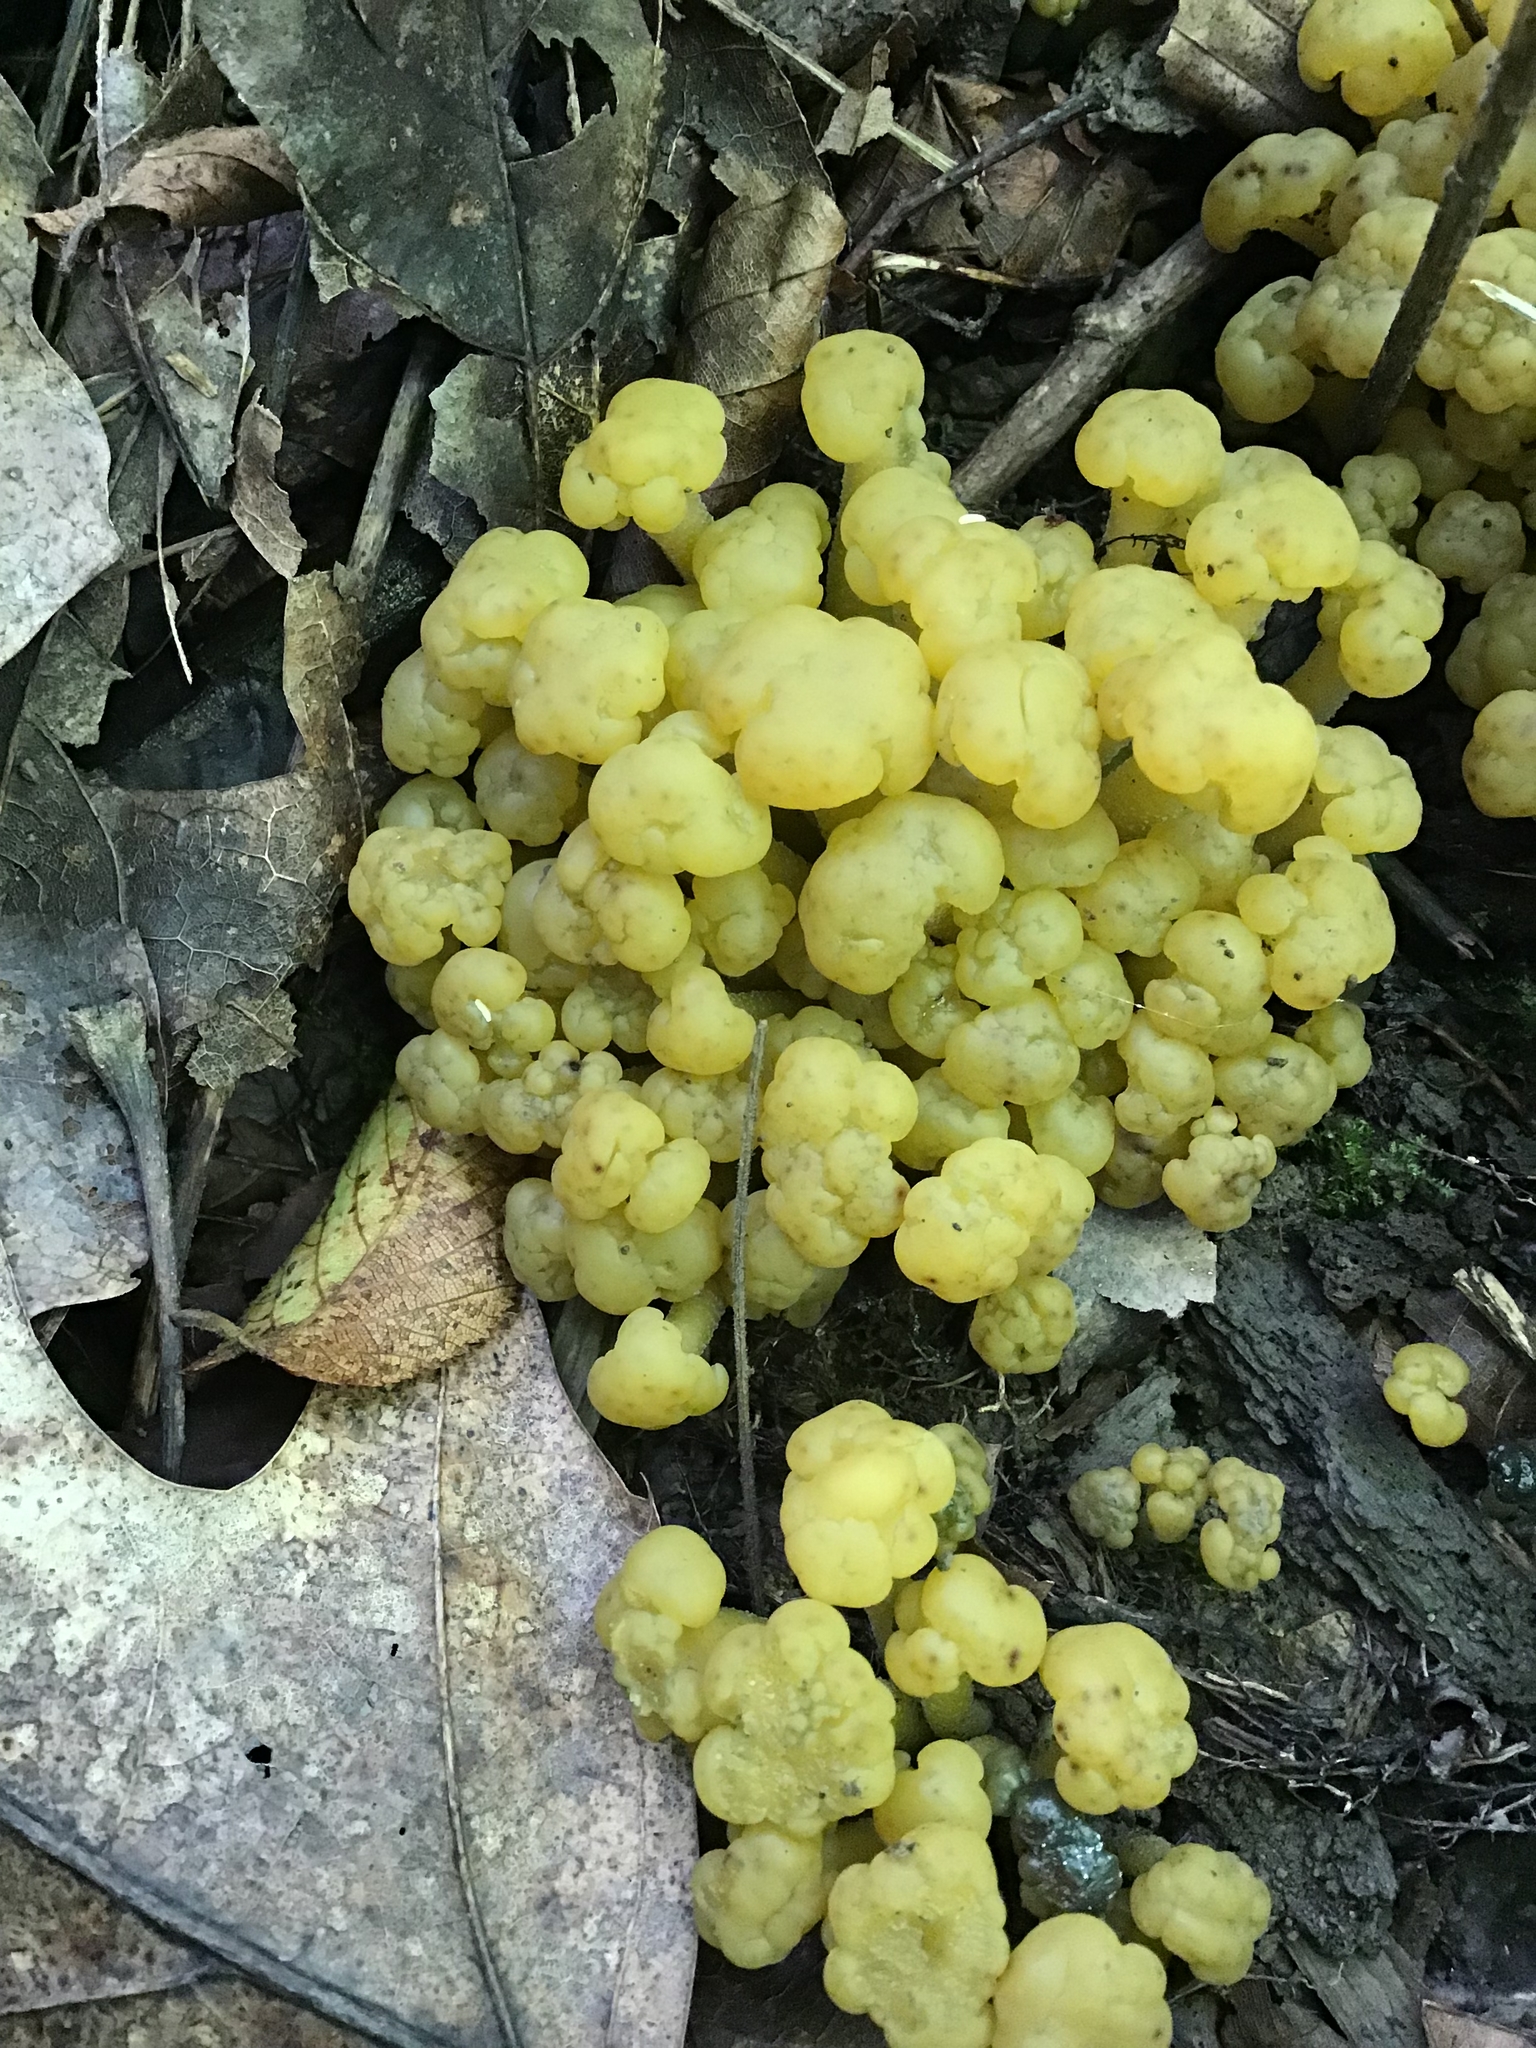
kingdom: Fungi
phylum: Ascomycota
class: Leotiomycetes
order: Leotiales
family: Leotiaceae
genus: Leotia
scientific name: Leotia lubrica
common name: Jellybaby
